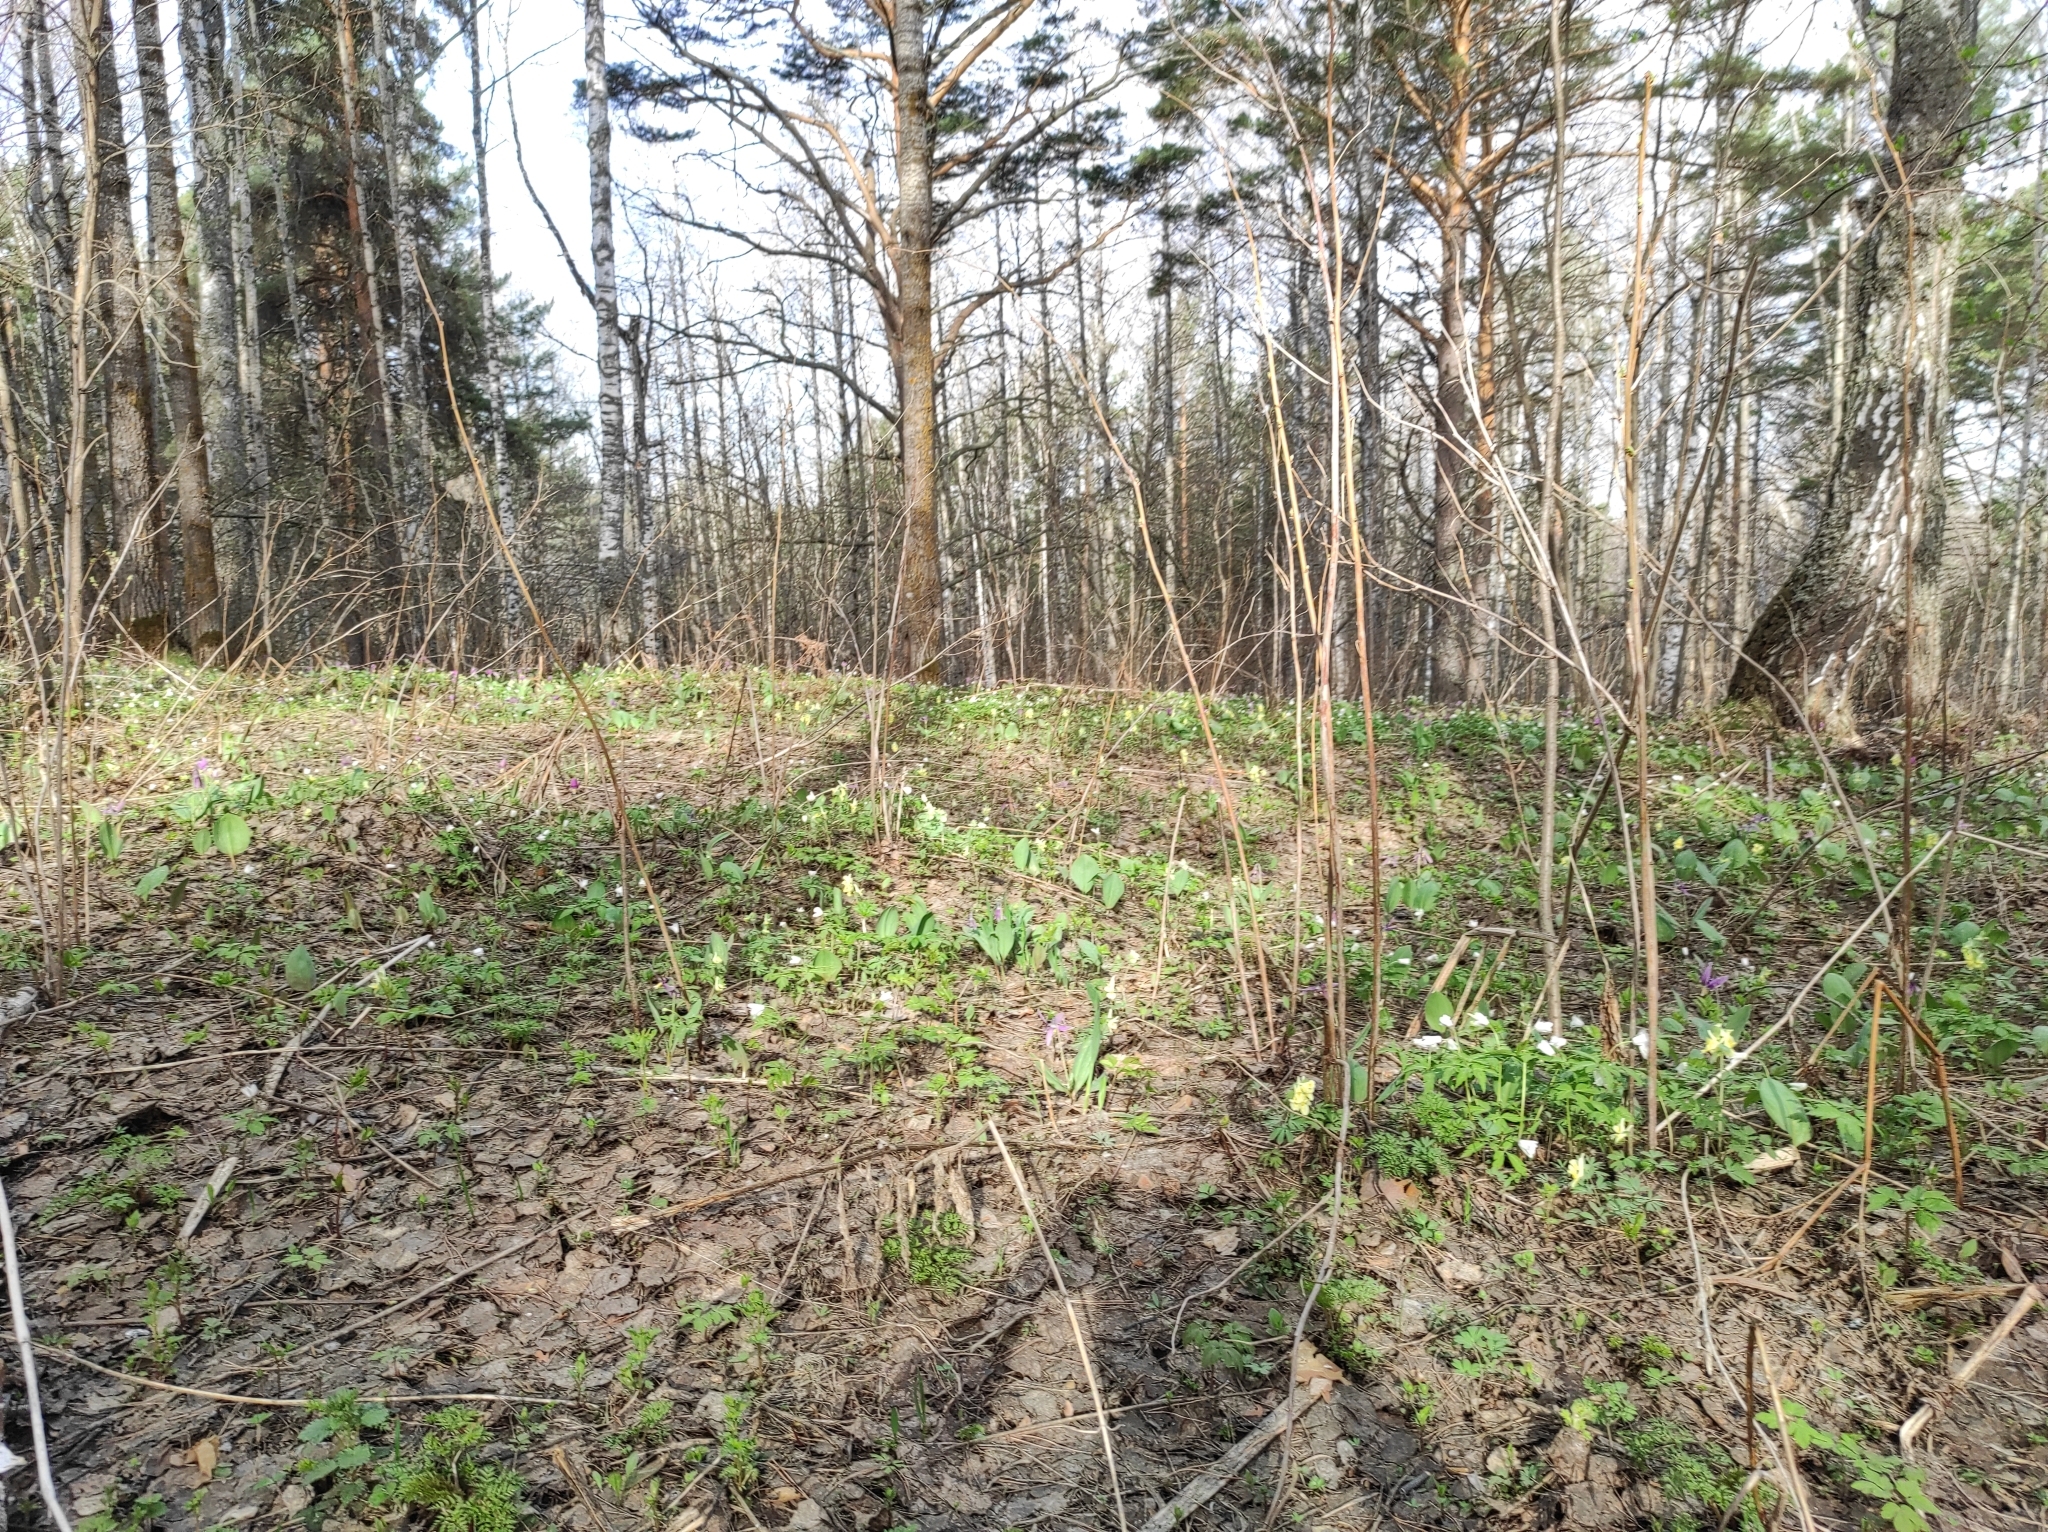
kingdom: Plantae
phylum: Tracheophyta
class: Magnoliopsida
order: Ranunculales
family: Papaveraceae
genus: Corydalis
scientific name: Corydalis bracteata
